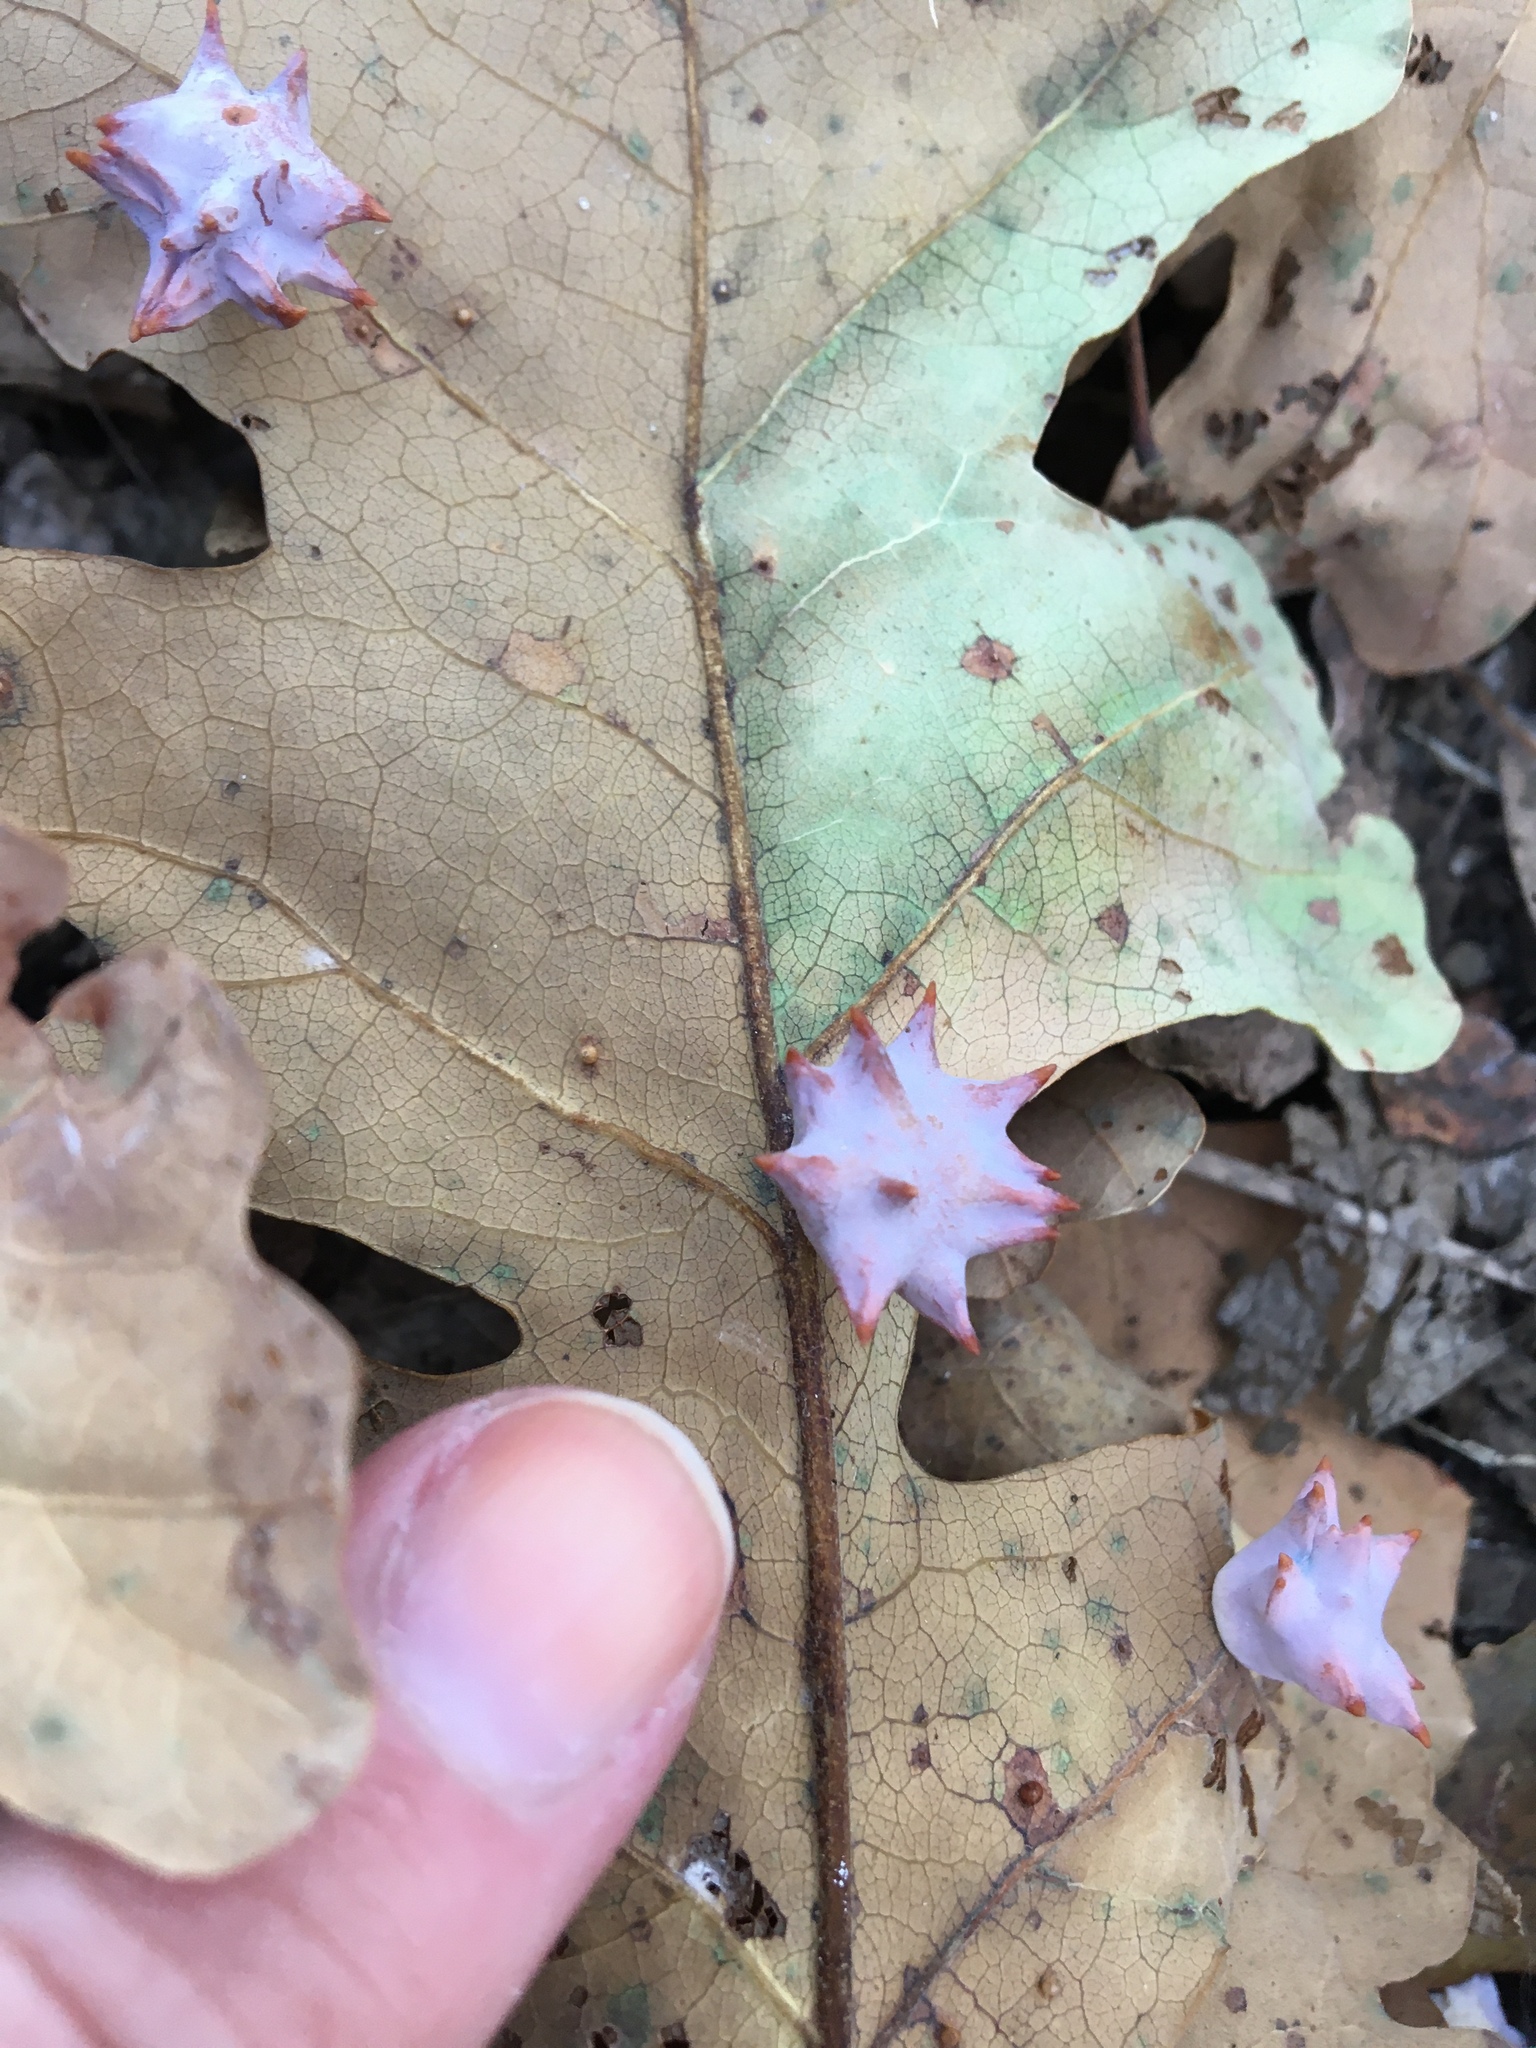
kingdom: Animalia
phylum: Arthropoda
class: Insecta
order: Hymenoptera
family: Cynipidae
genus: Cynips
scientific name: Cynips douglasi
